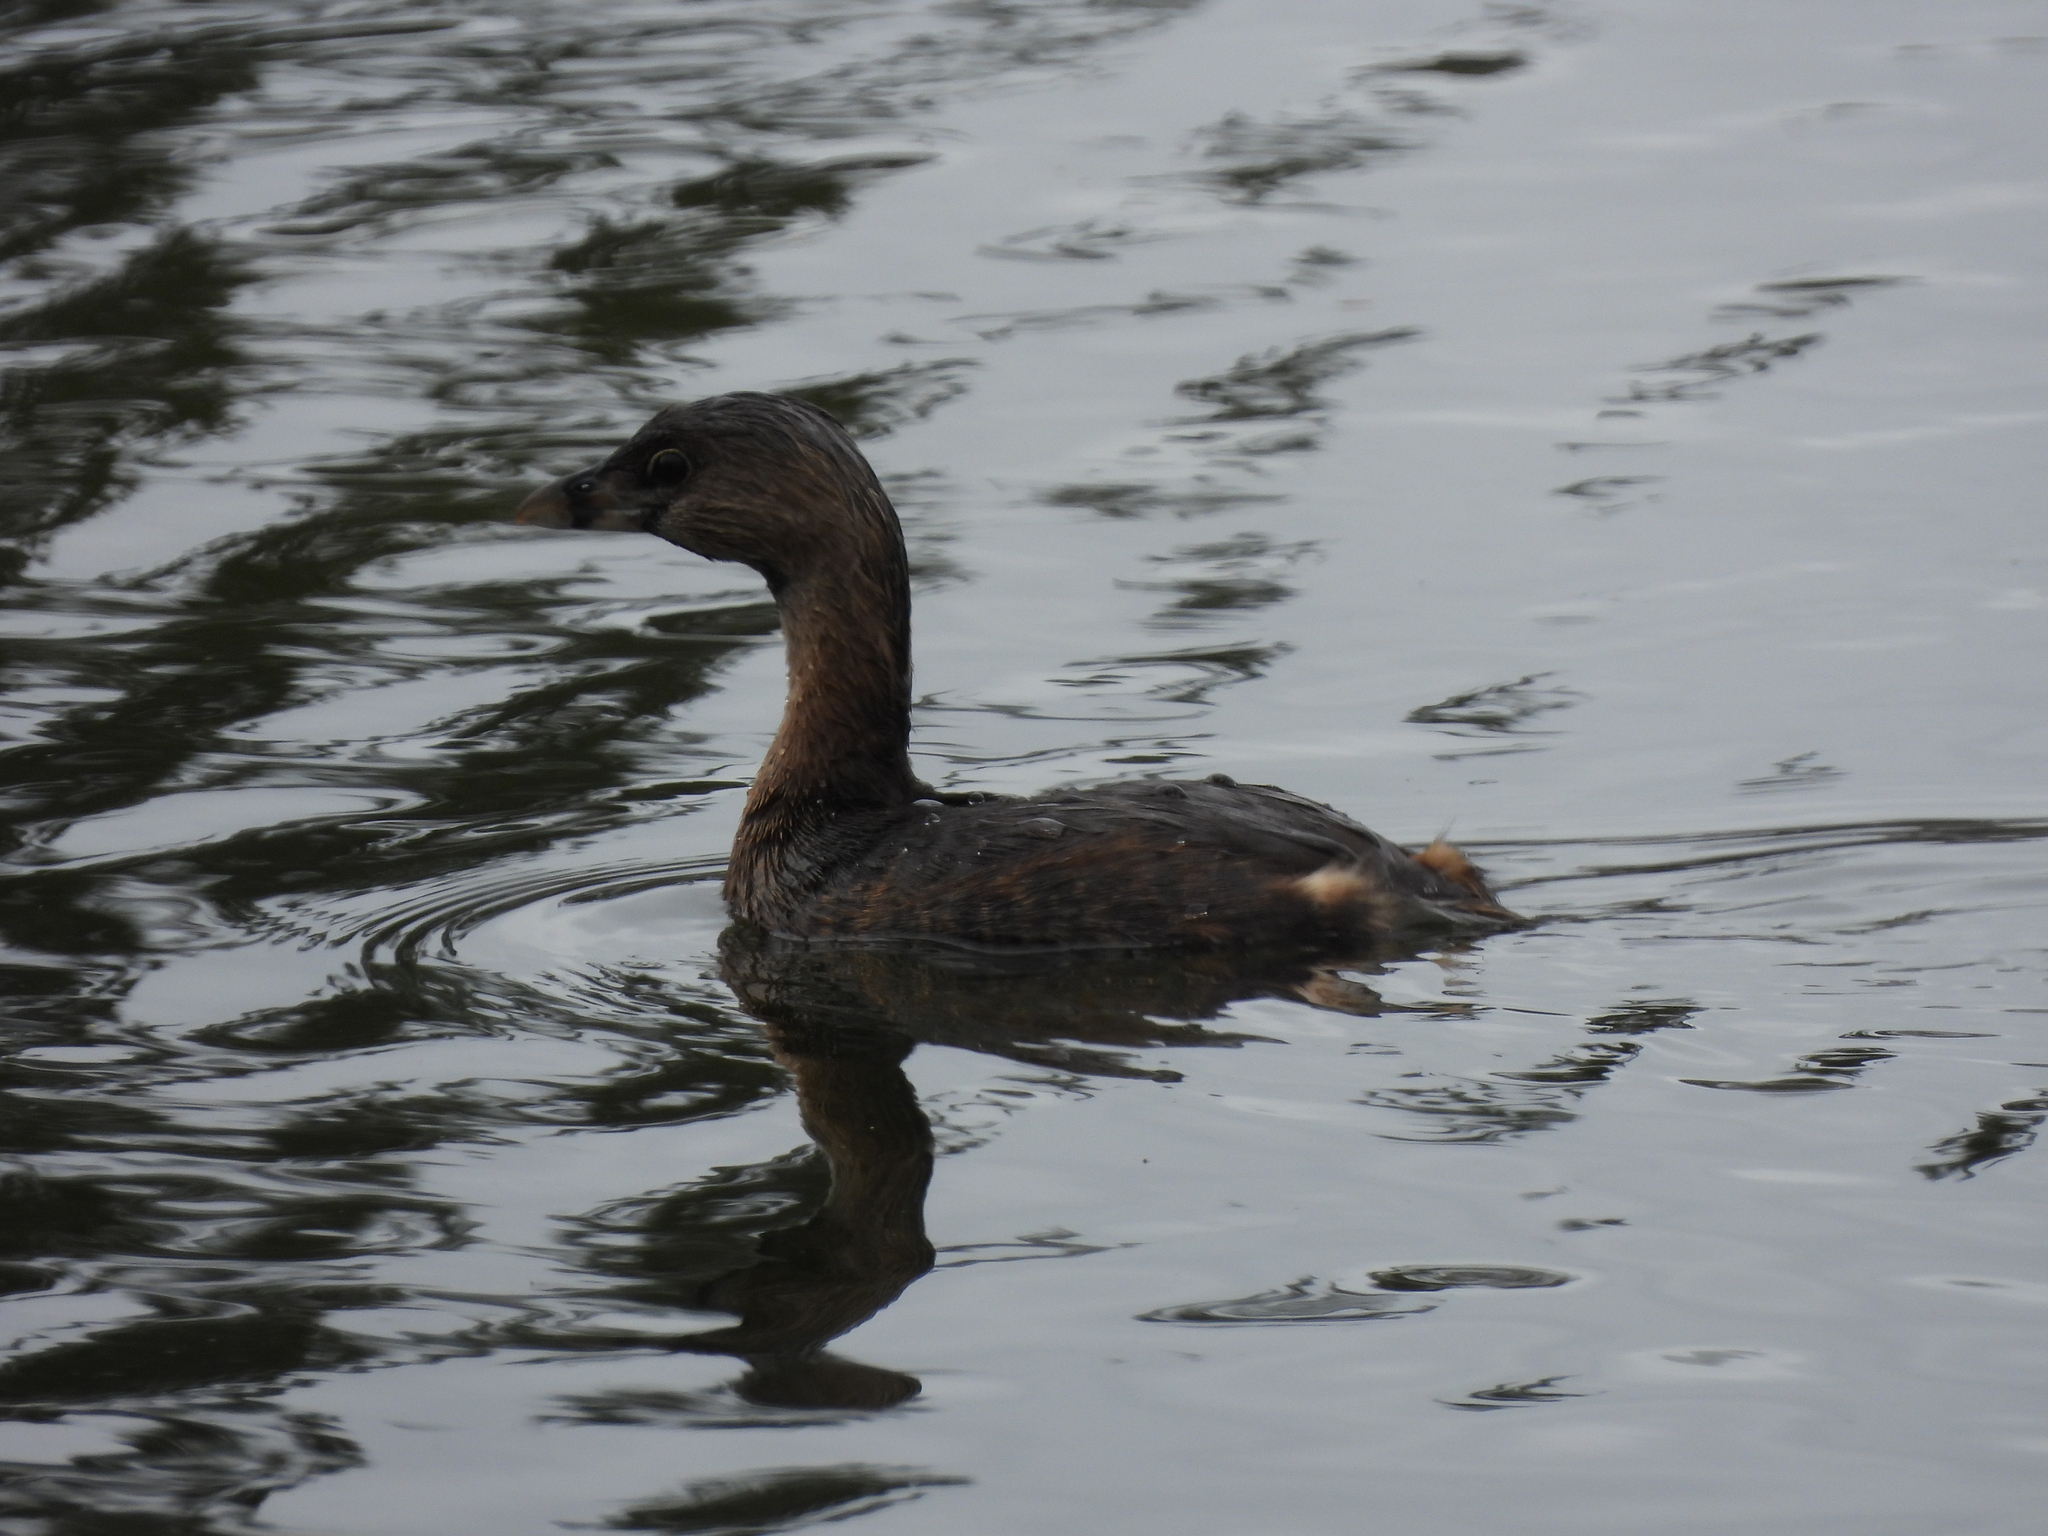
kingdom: Animalia
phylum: Chordata
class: Aves
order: Podicipediformes
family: Podicipedidae
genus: Podilymbus
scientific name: Podilymbus podiceps
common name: Pied-billed grebe
